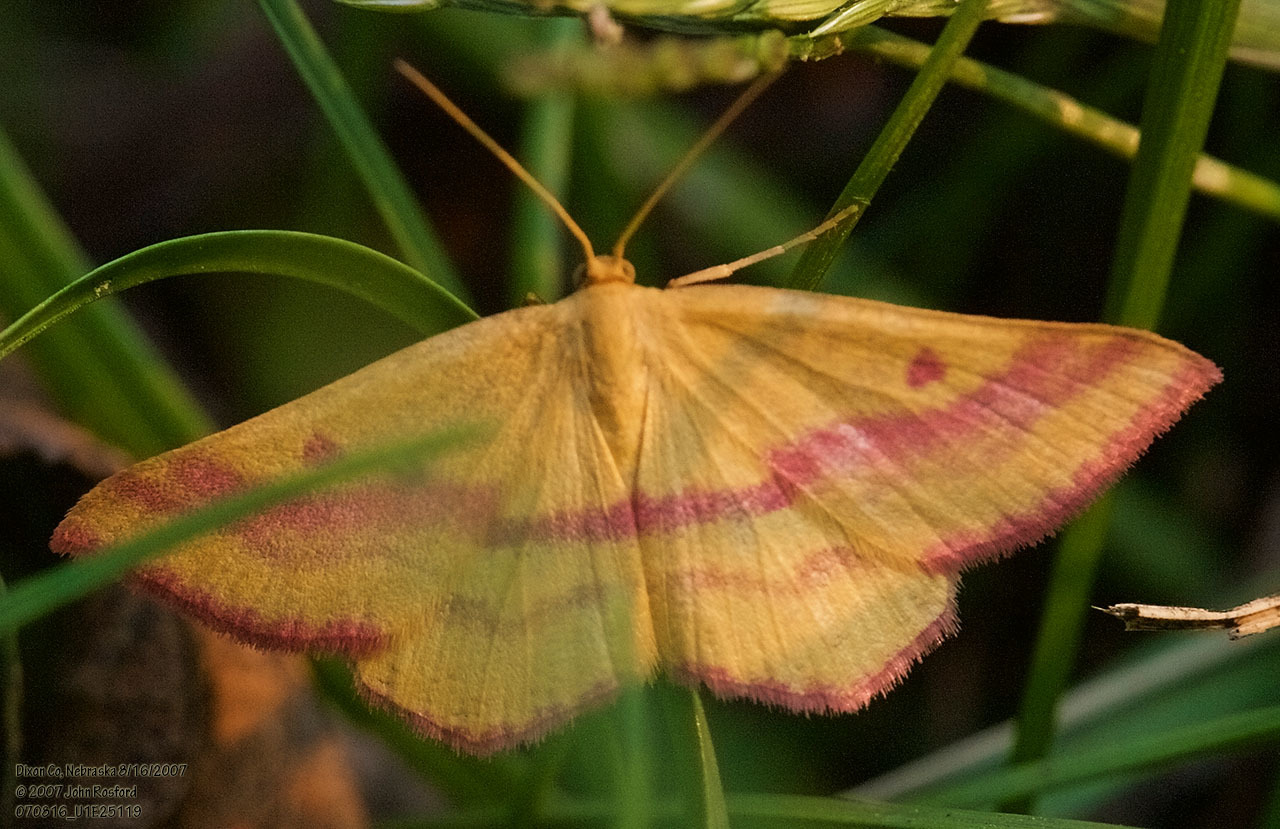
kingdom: Animalia
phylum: Arthropoda
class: Insecta
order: Lepidoptera
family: Geometridae
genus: Haematopis
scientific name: Haematopis grataria
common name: Chickweed geometer
